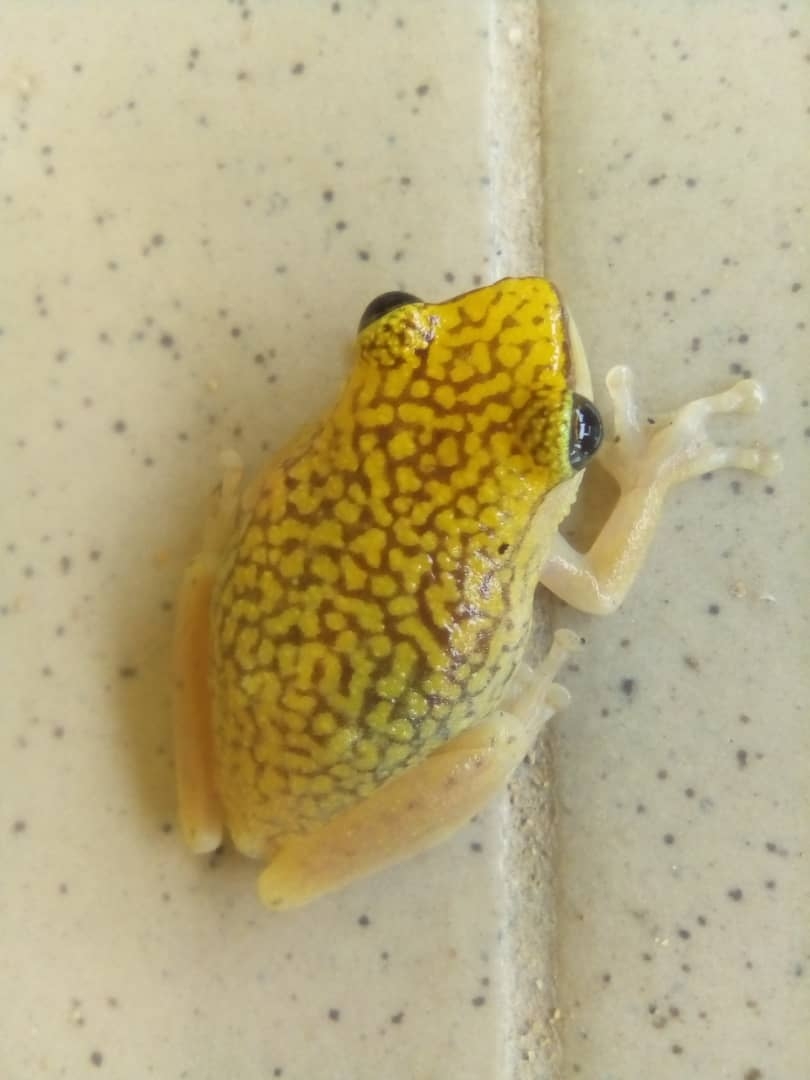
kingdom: Animalia
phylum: Chordata
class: Amphibia
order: Anura
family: Hyperoliidae
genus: Hyperolius
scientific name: Hyperolius guttulatus
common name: Dotted reed frog
